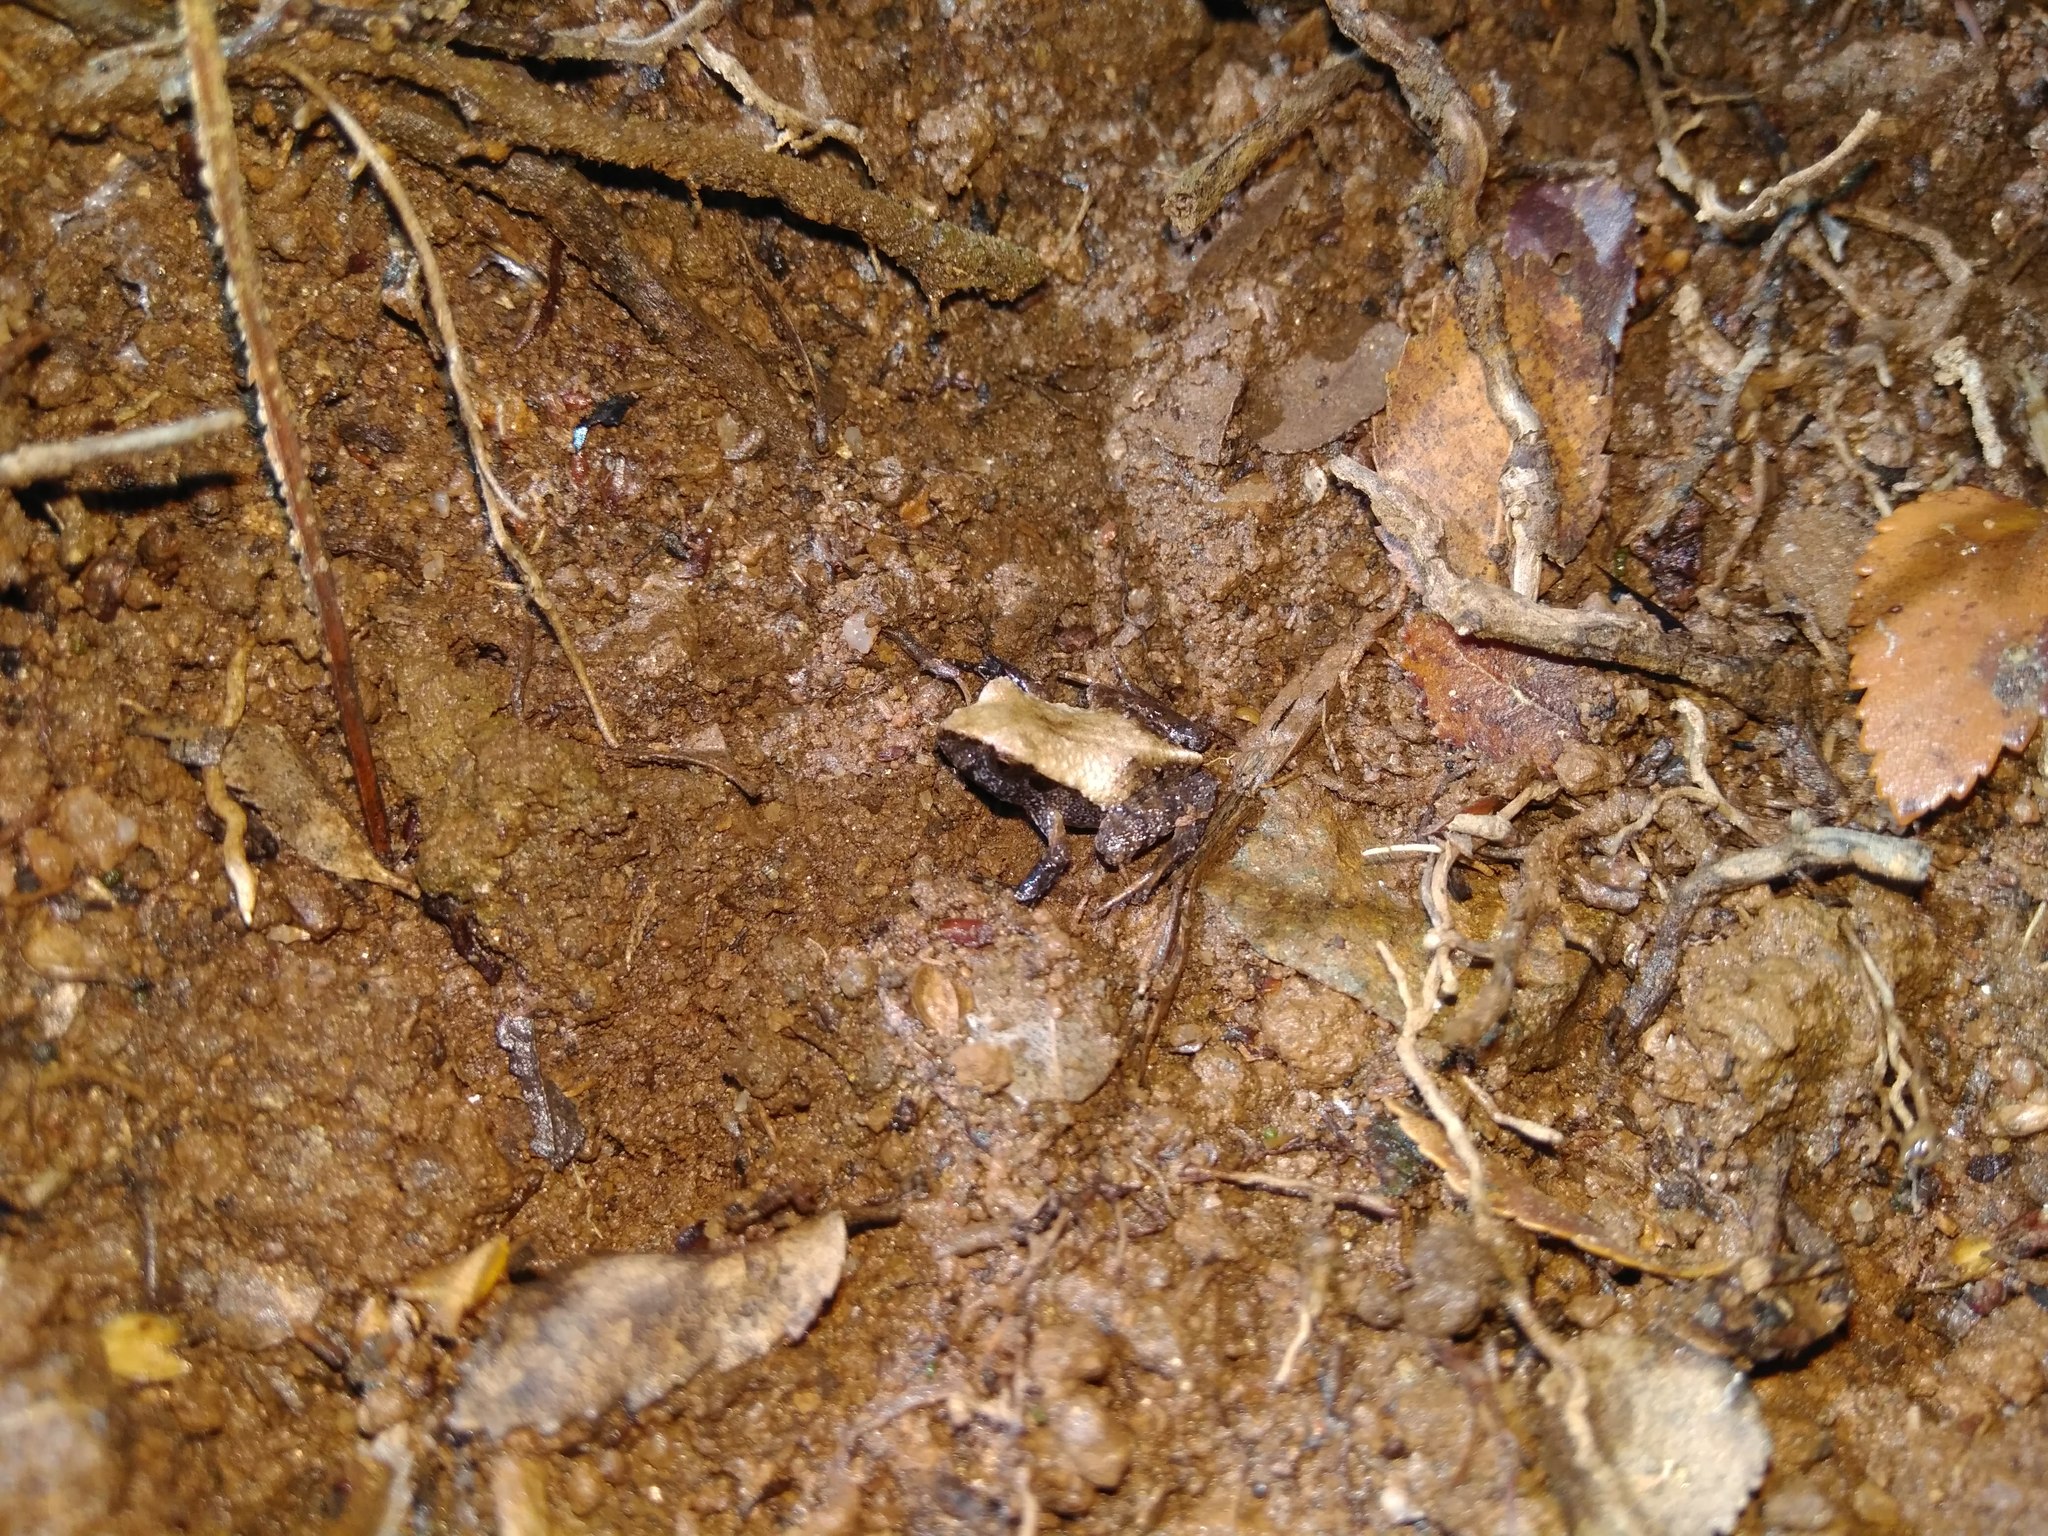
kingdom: Animalia
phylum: Chordata
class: Amphibia
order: Anura
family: Alsodidae
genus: Eupsophus
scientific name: Eupsophus roseus
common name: Rosy ground frog
